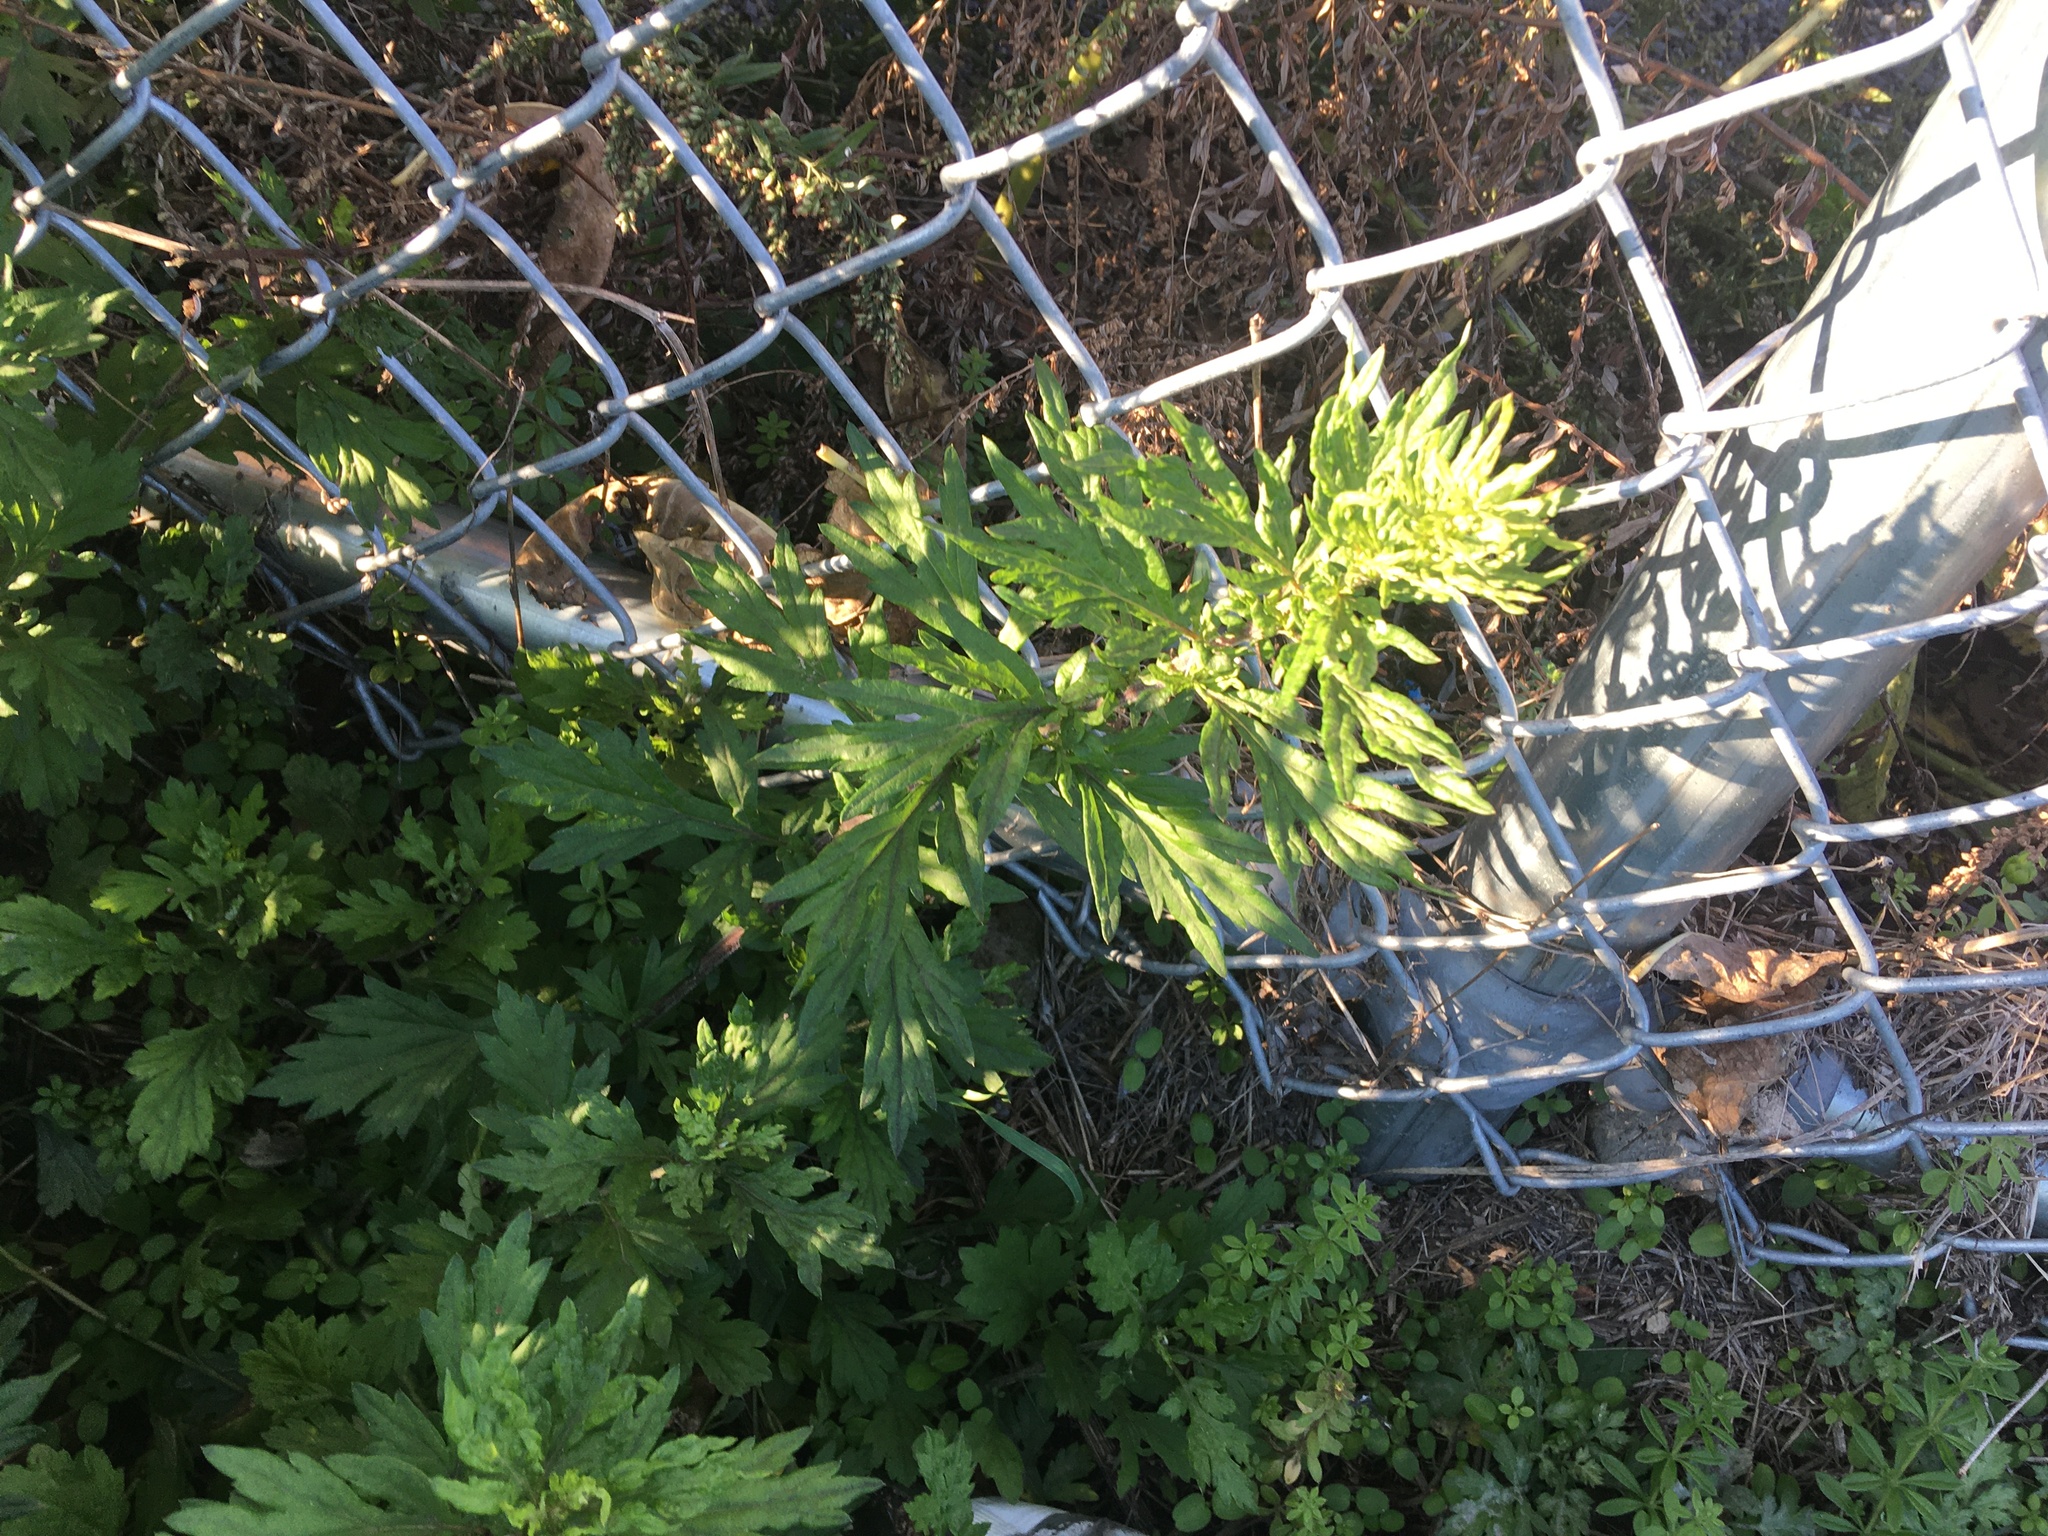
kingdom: Plantae
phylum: Tracheophyta
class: Magnoliopsida
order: Asterales
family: Asteraceae
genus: Artemisia
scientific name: Artemisia vulgaris
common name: Mugwort
